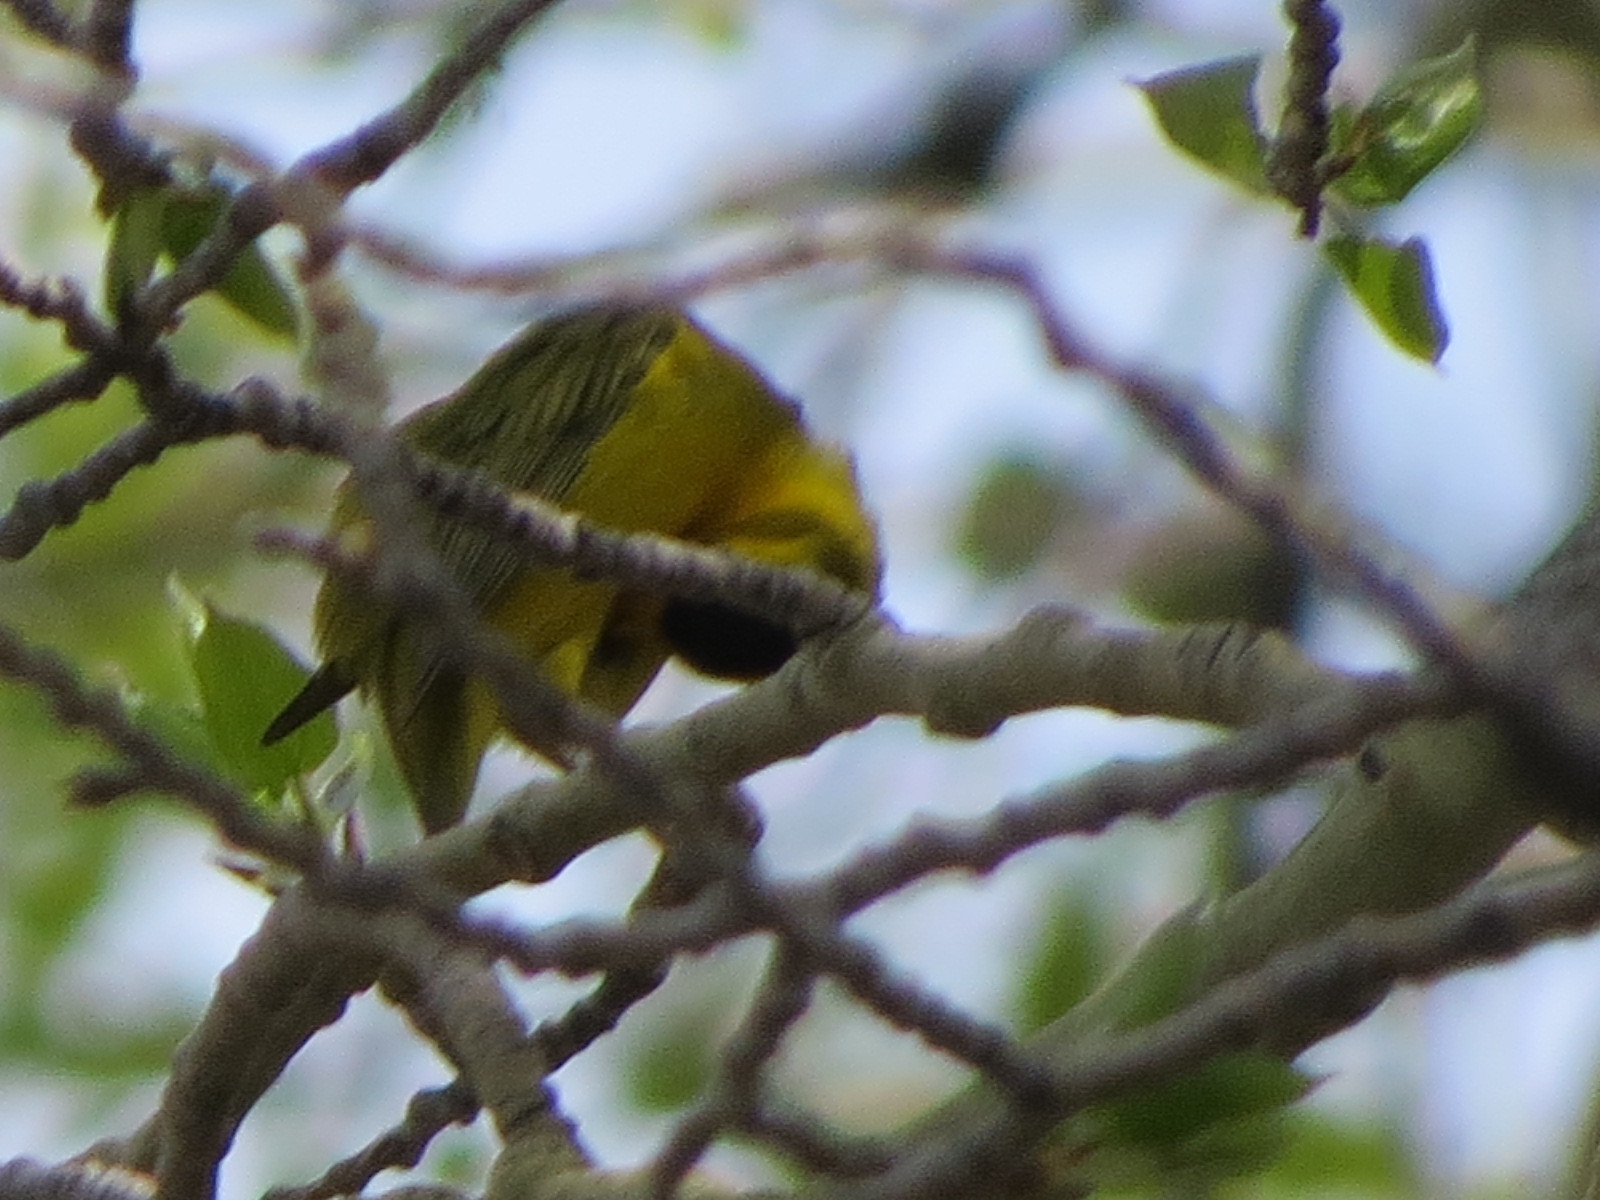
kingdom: Animalia
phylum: Chordata
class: Aves
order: Passeriformes
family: Parulidae
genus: Cardellina
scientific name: Cardellina pusilla
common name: Wilson's warbler
